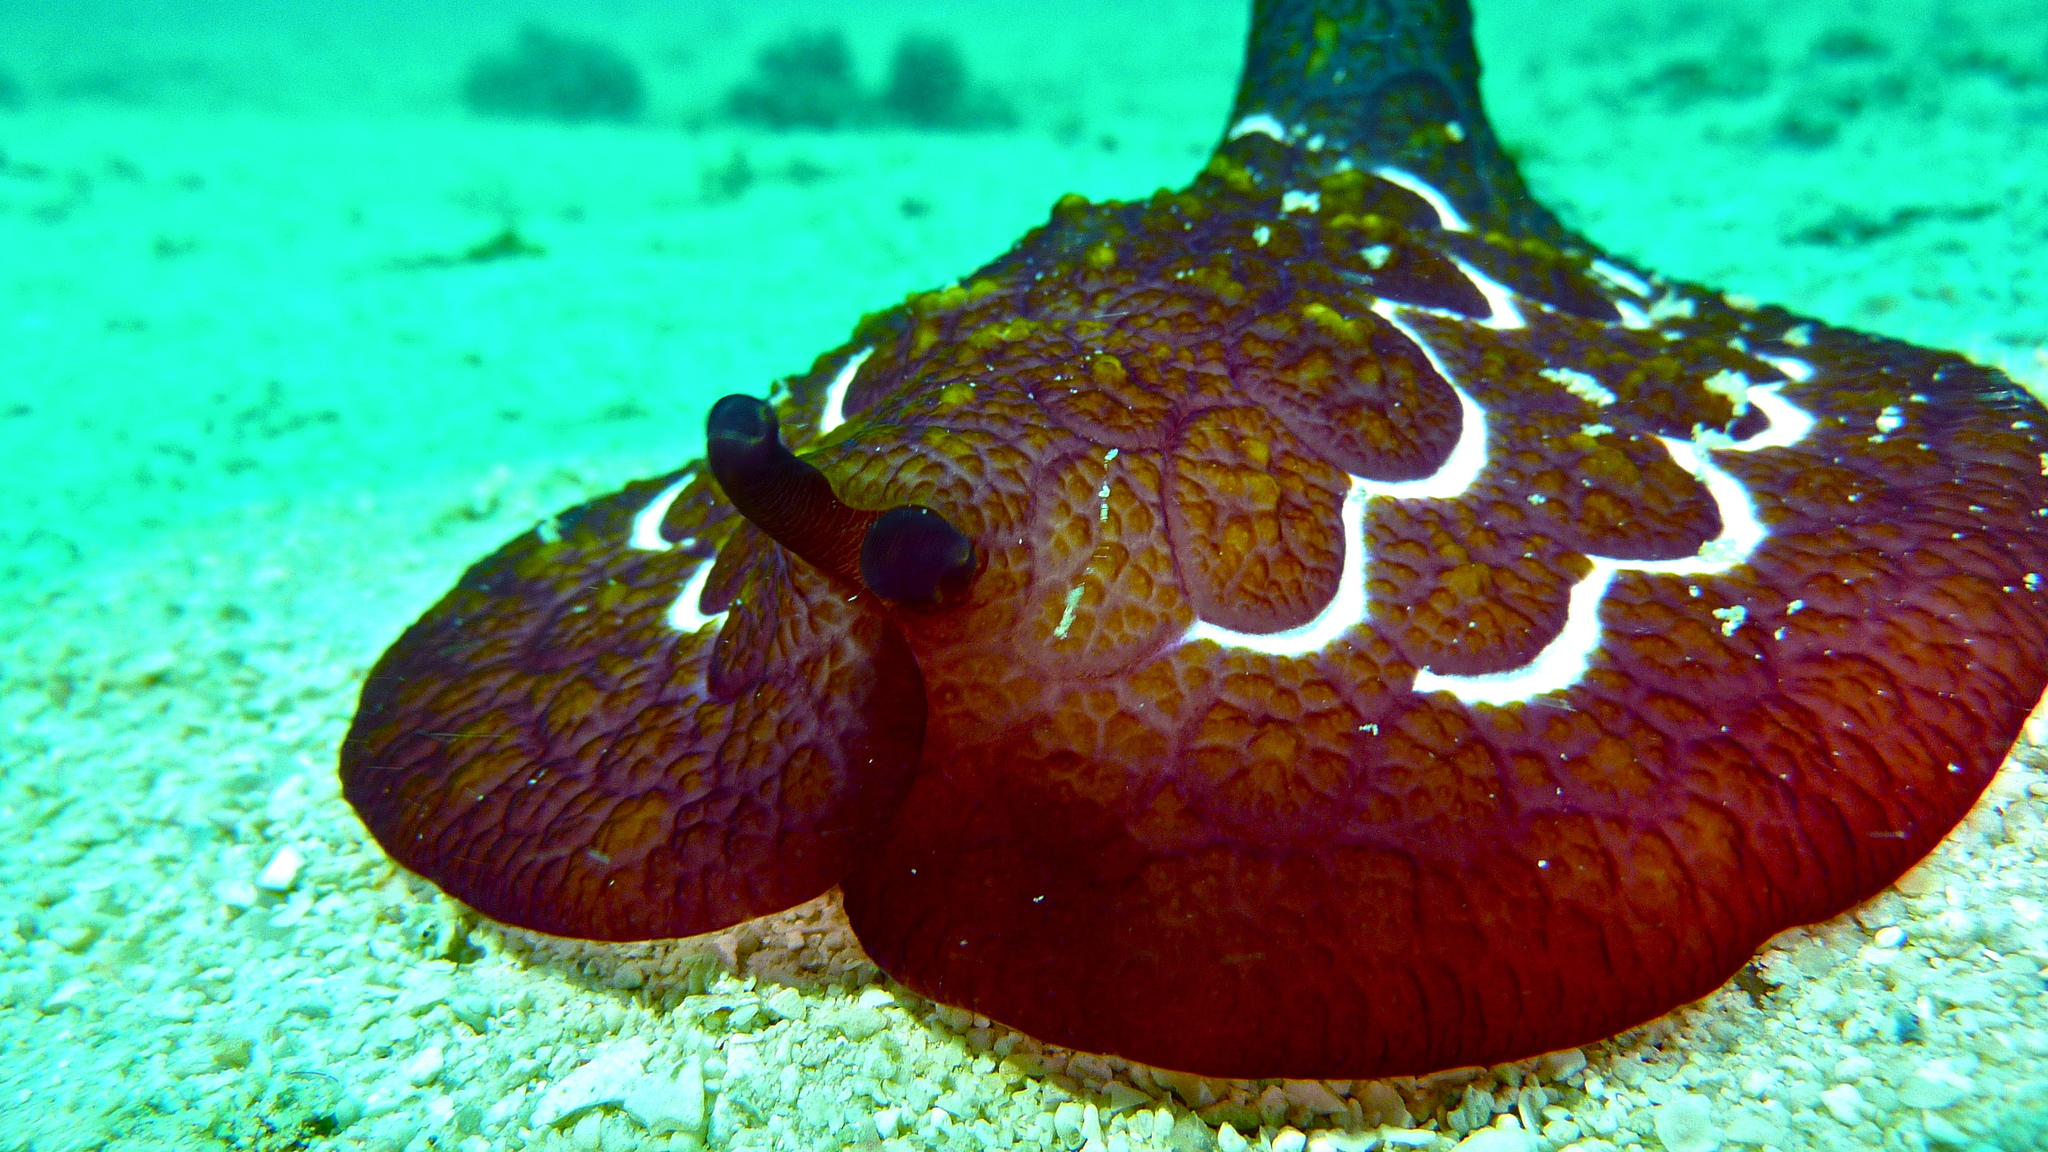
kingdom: Animalia
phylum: Mollusca
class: Gastropoda
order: Pleurobranchida
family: Pleurobranchidae
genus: Pleurobranchus
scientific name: Pleurobranchus forskalii
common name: Forskal's side-gilled sea slug
